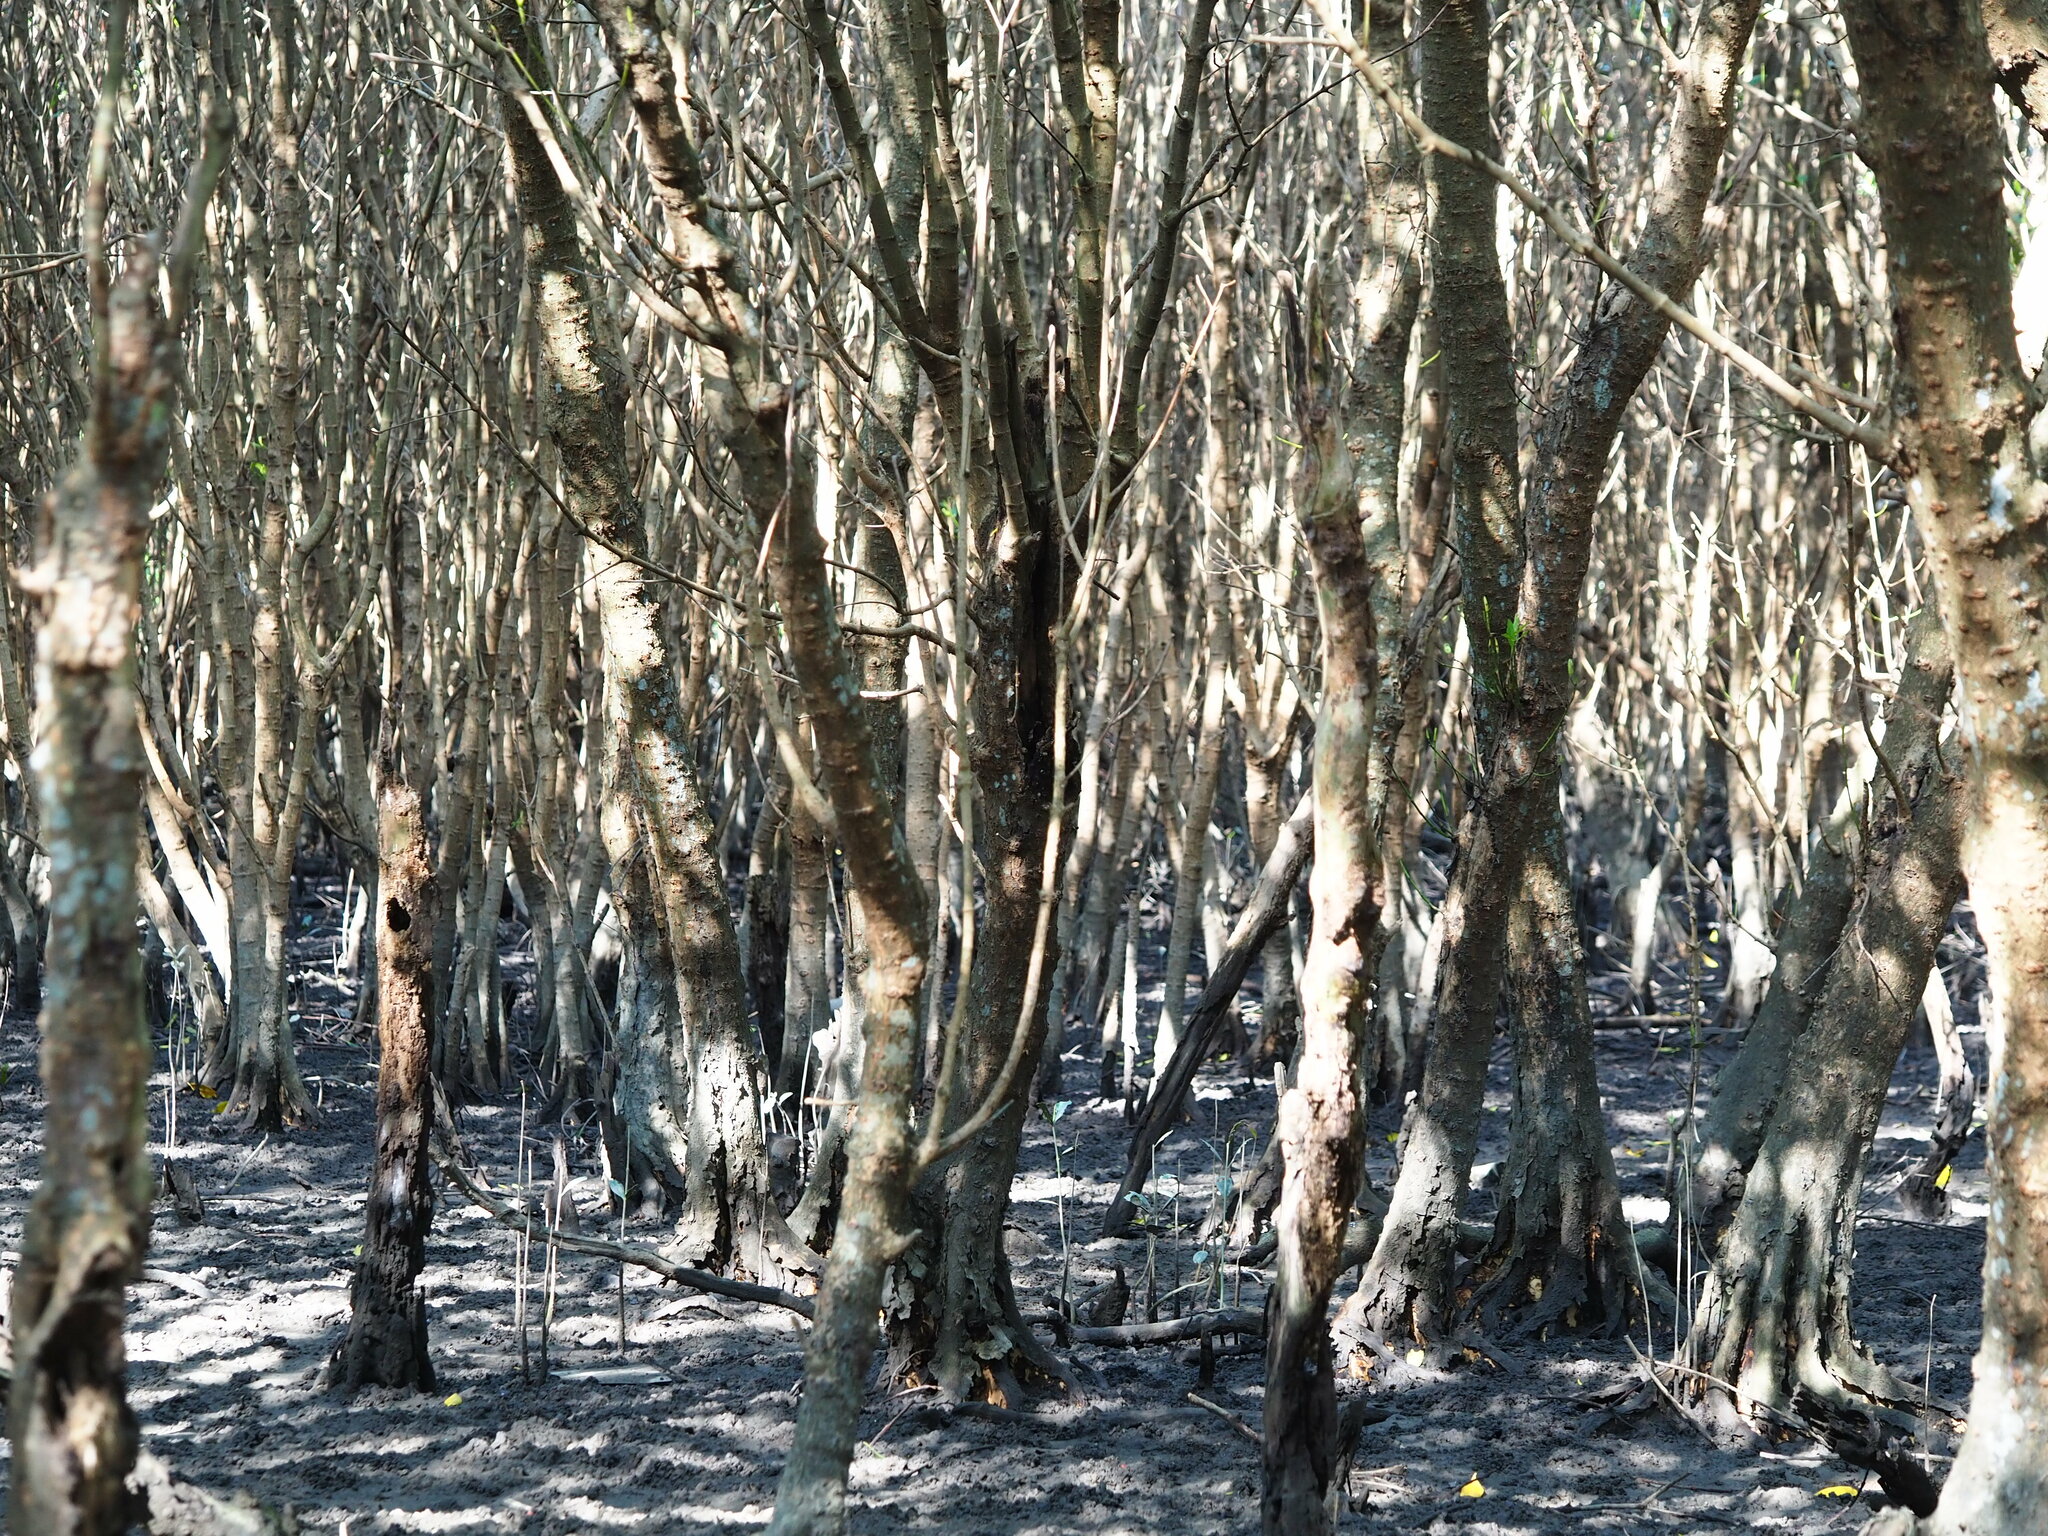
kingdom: Plantae
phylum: Tracheophyta
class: Magnoliopsida
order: Malpighiales
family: Rhizophoraceae
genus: Kandelia
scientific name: Kandelia obovata
